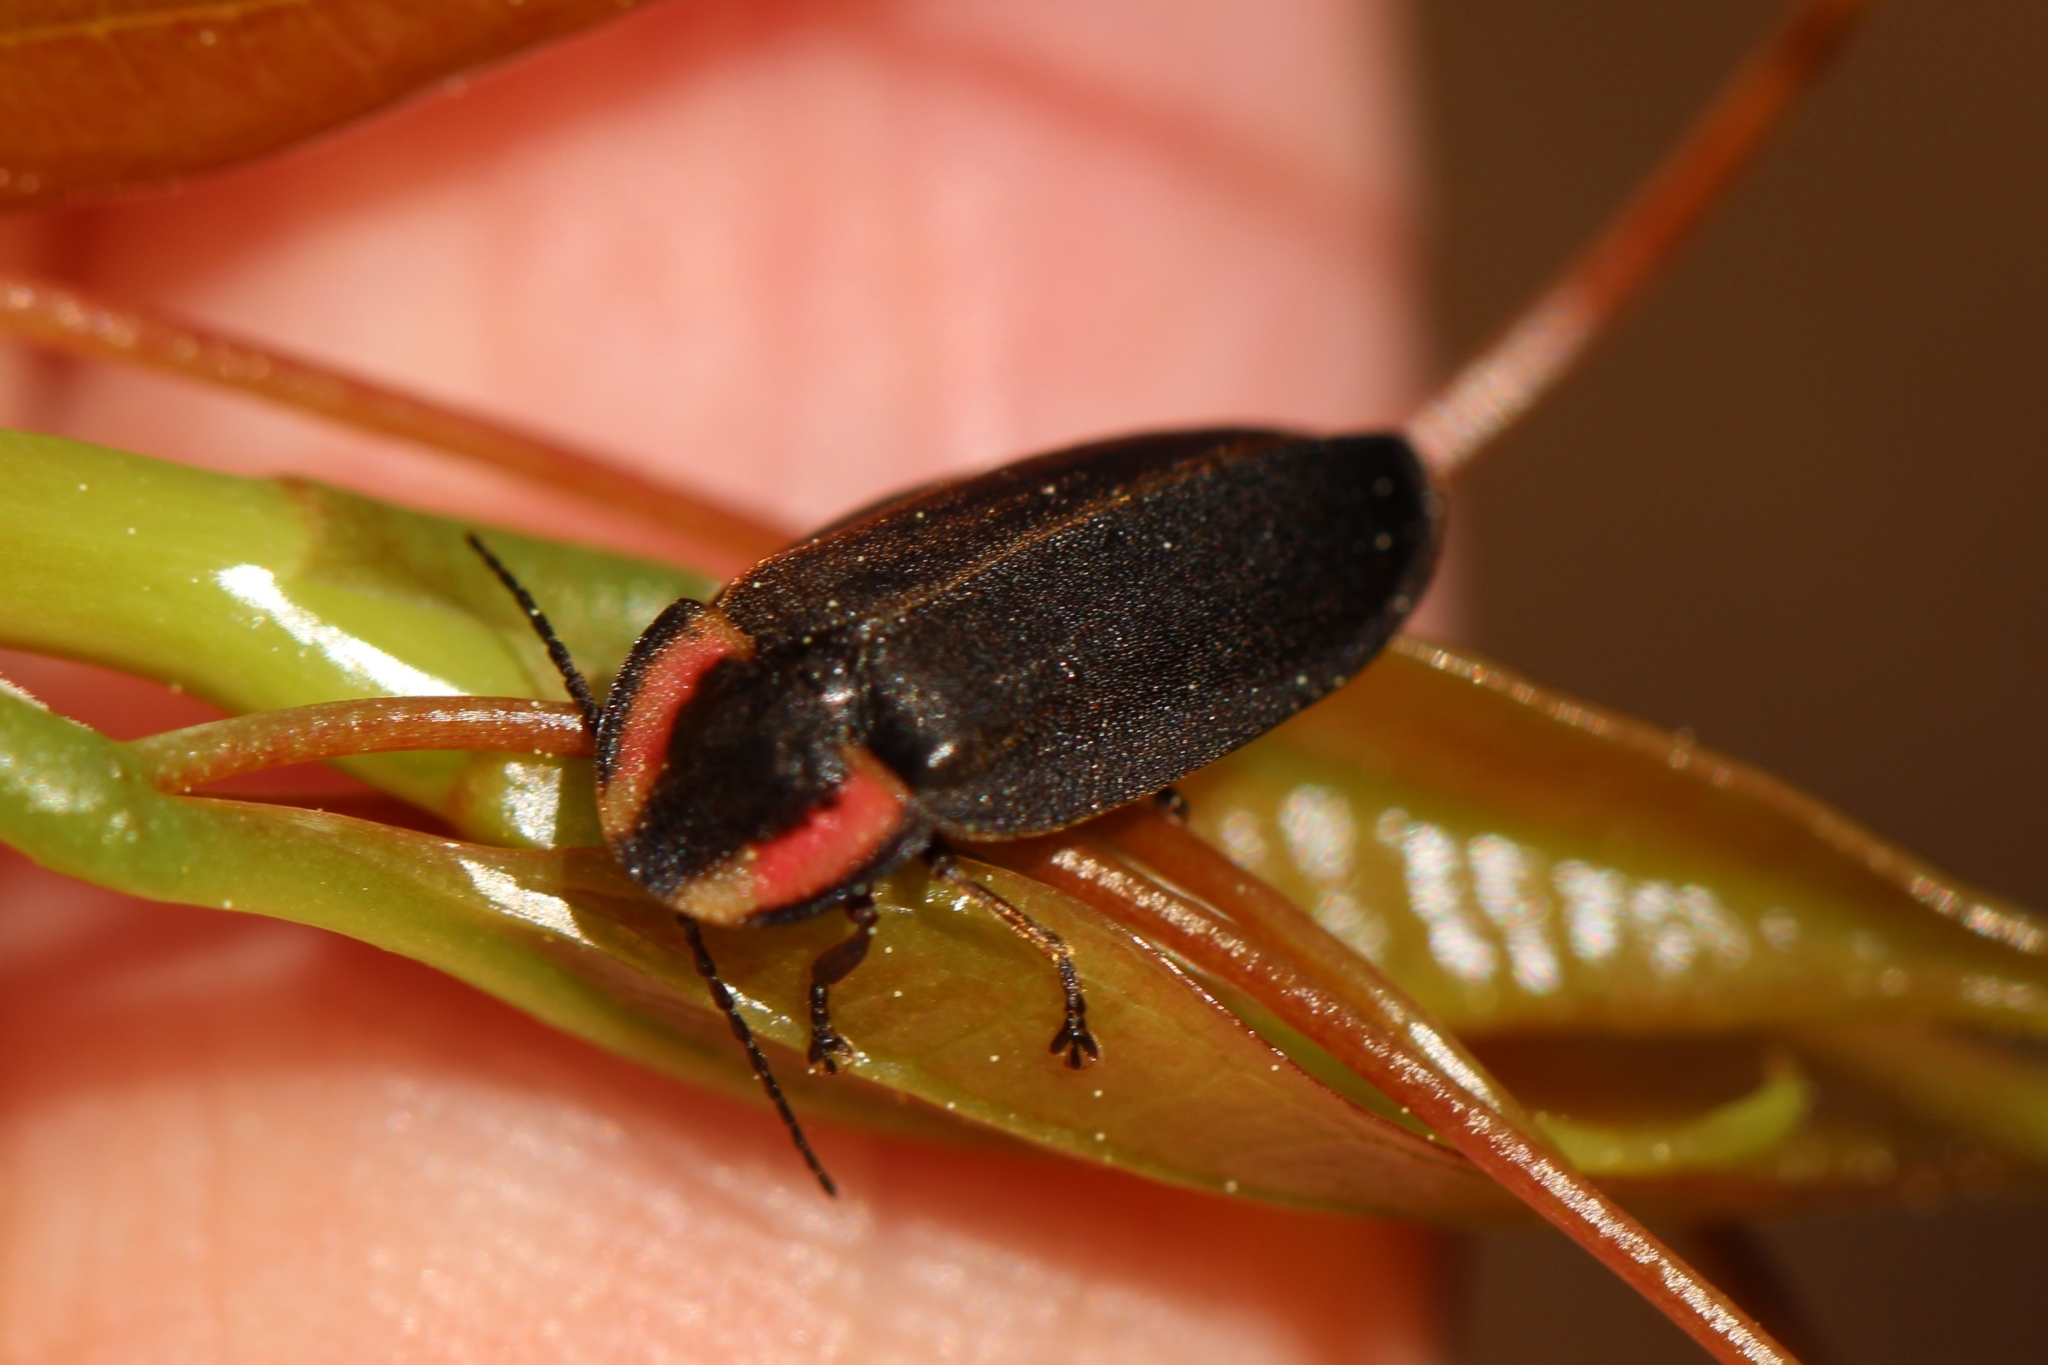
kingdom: Animalia
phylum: Arthropoda
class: Insecta
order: Coleoptera
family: Lampyridae
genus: Photinus
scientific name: Photinus corrusca
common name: Winter firefly
